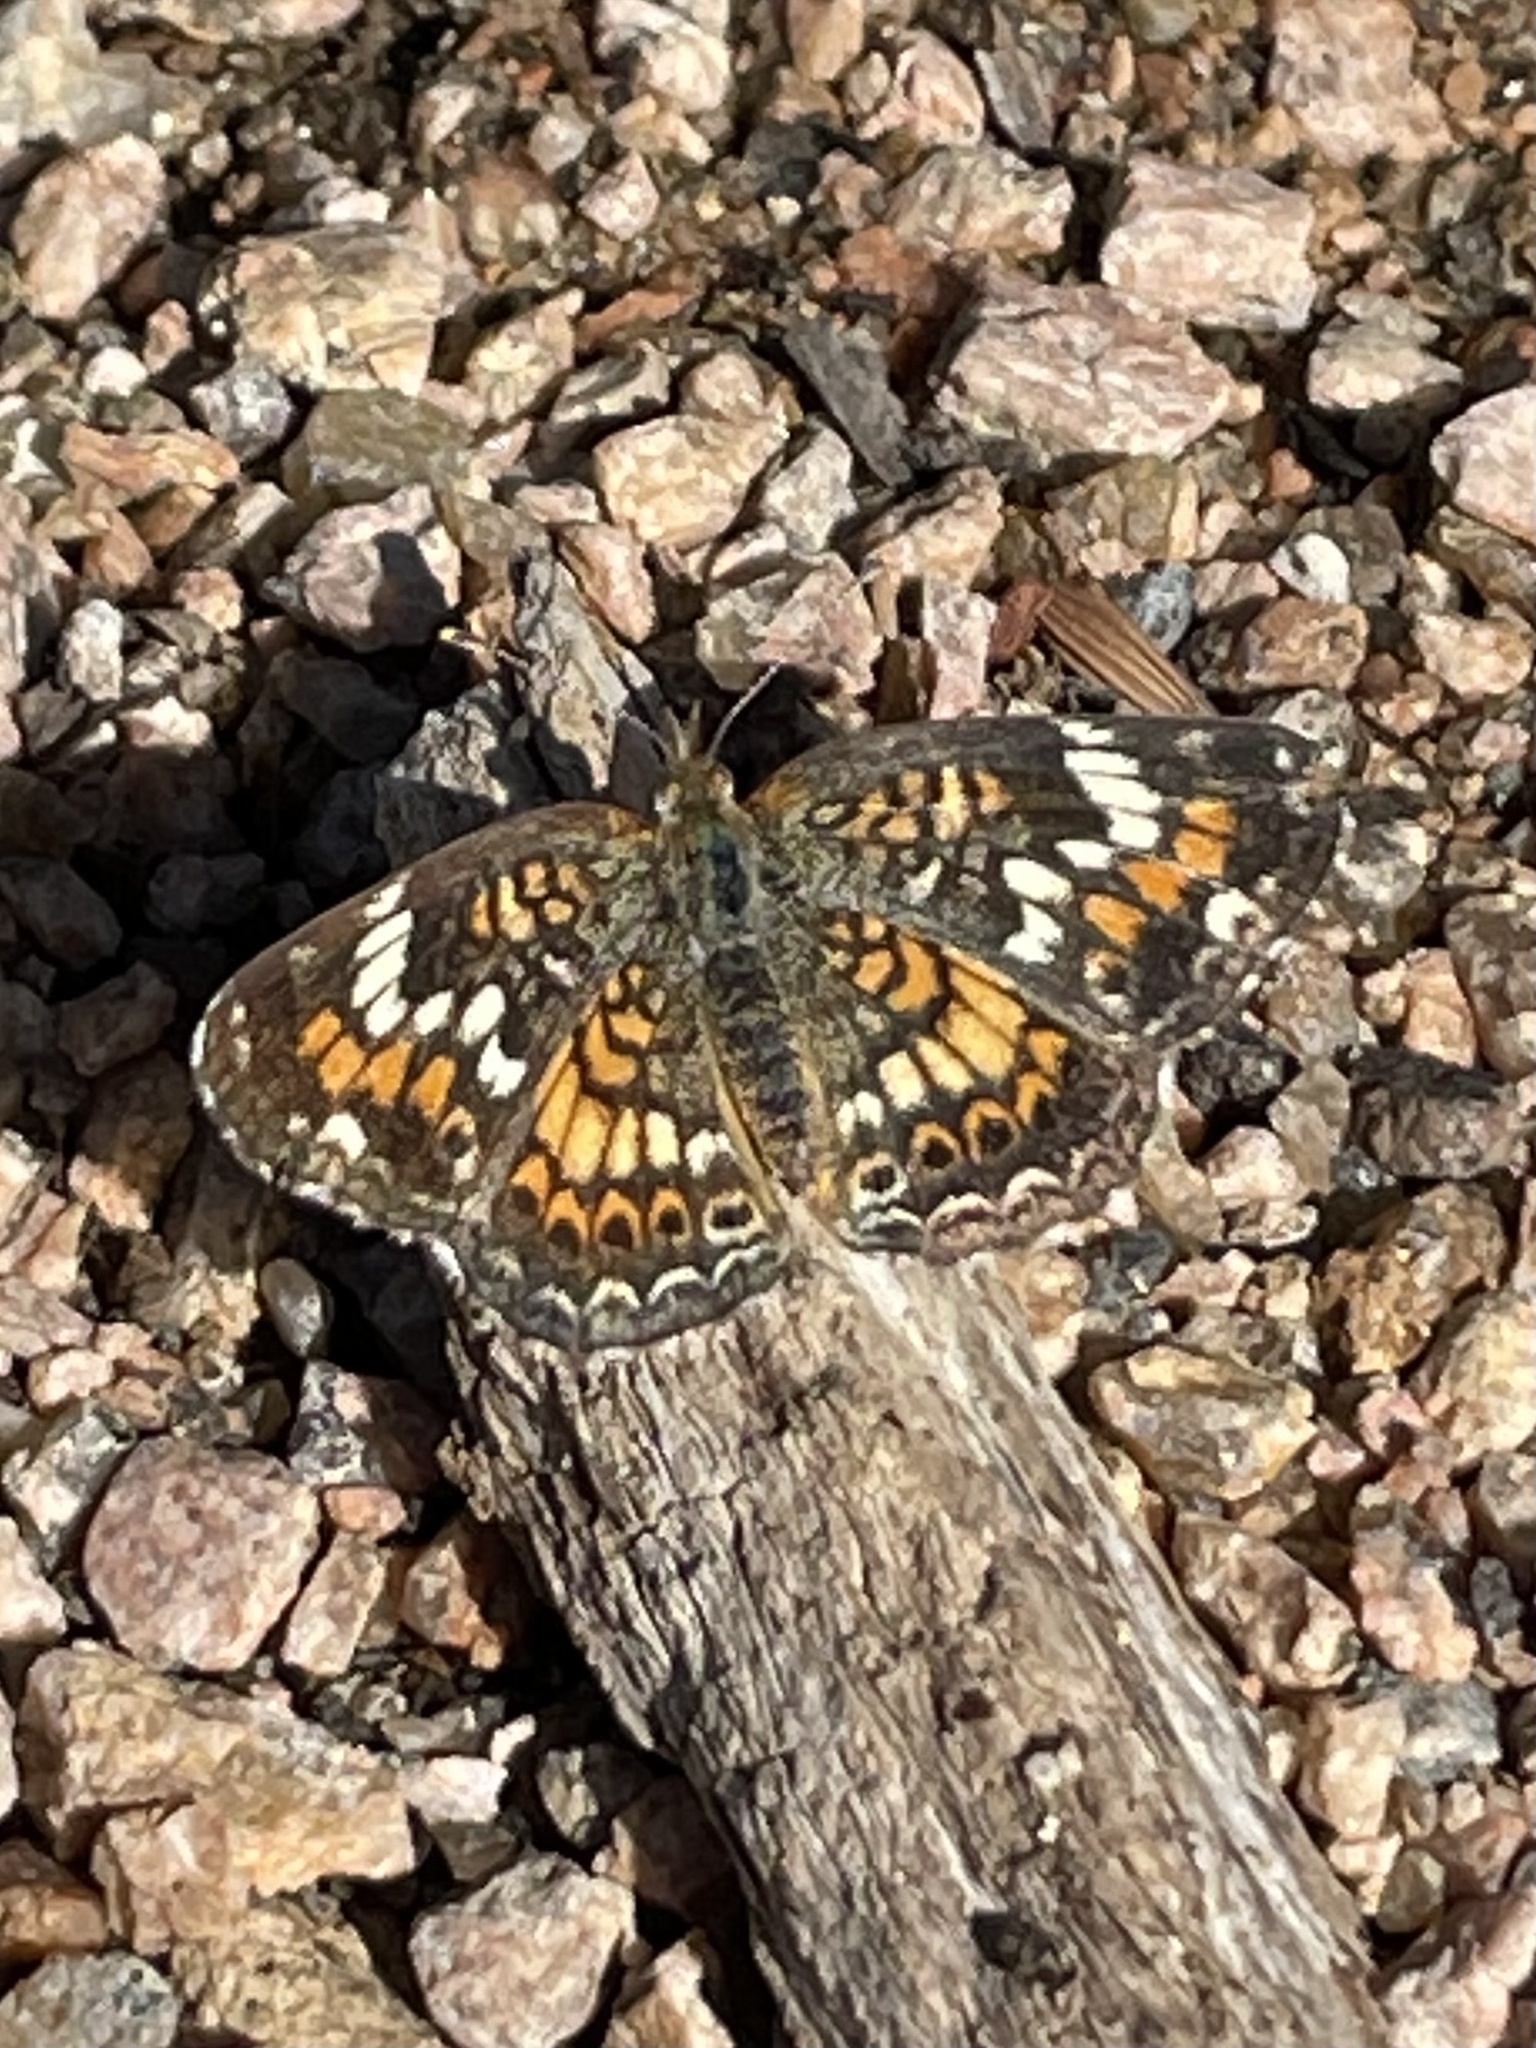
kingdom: Animalia
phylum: Arthropoda
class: Insecta
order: Lepidoptera
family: Nymphalidae
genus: Phyciodes
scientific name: Phyciodes phaon
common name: Phaon crescent
